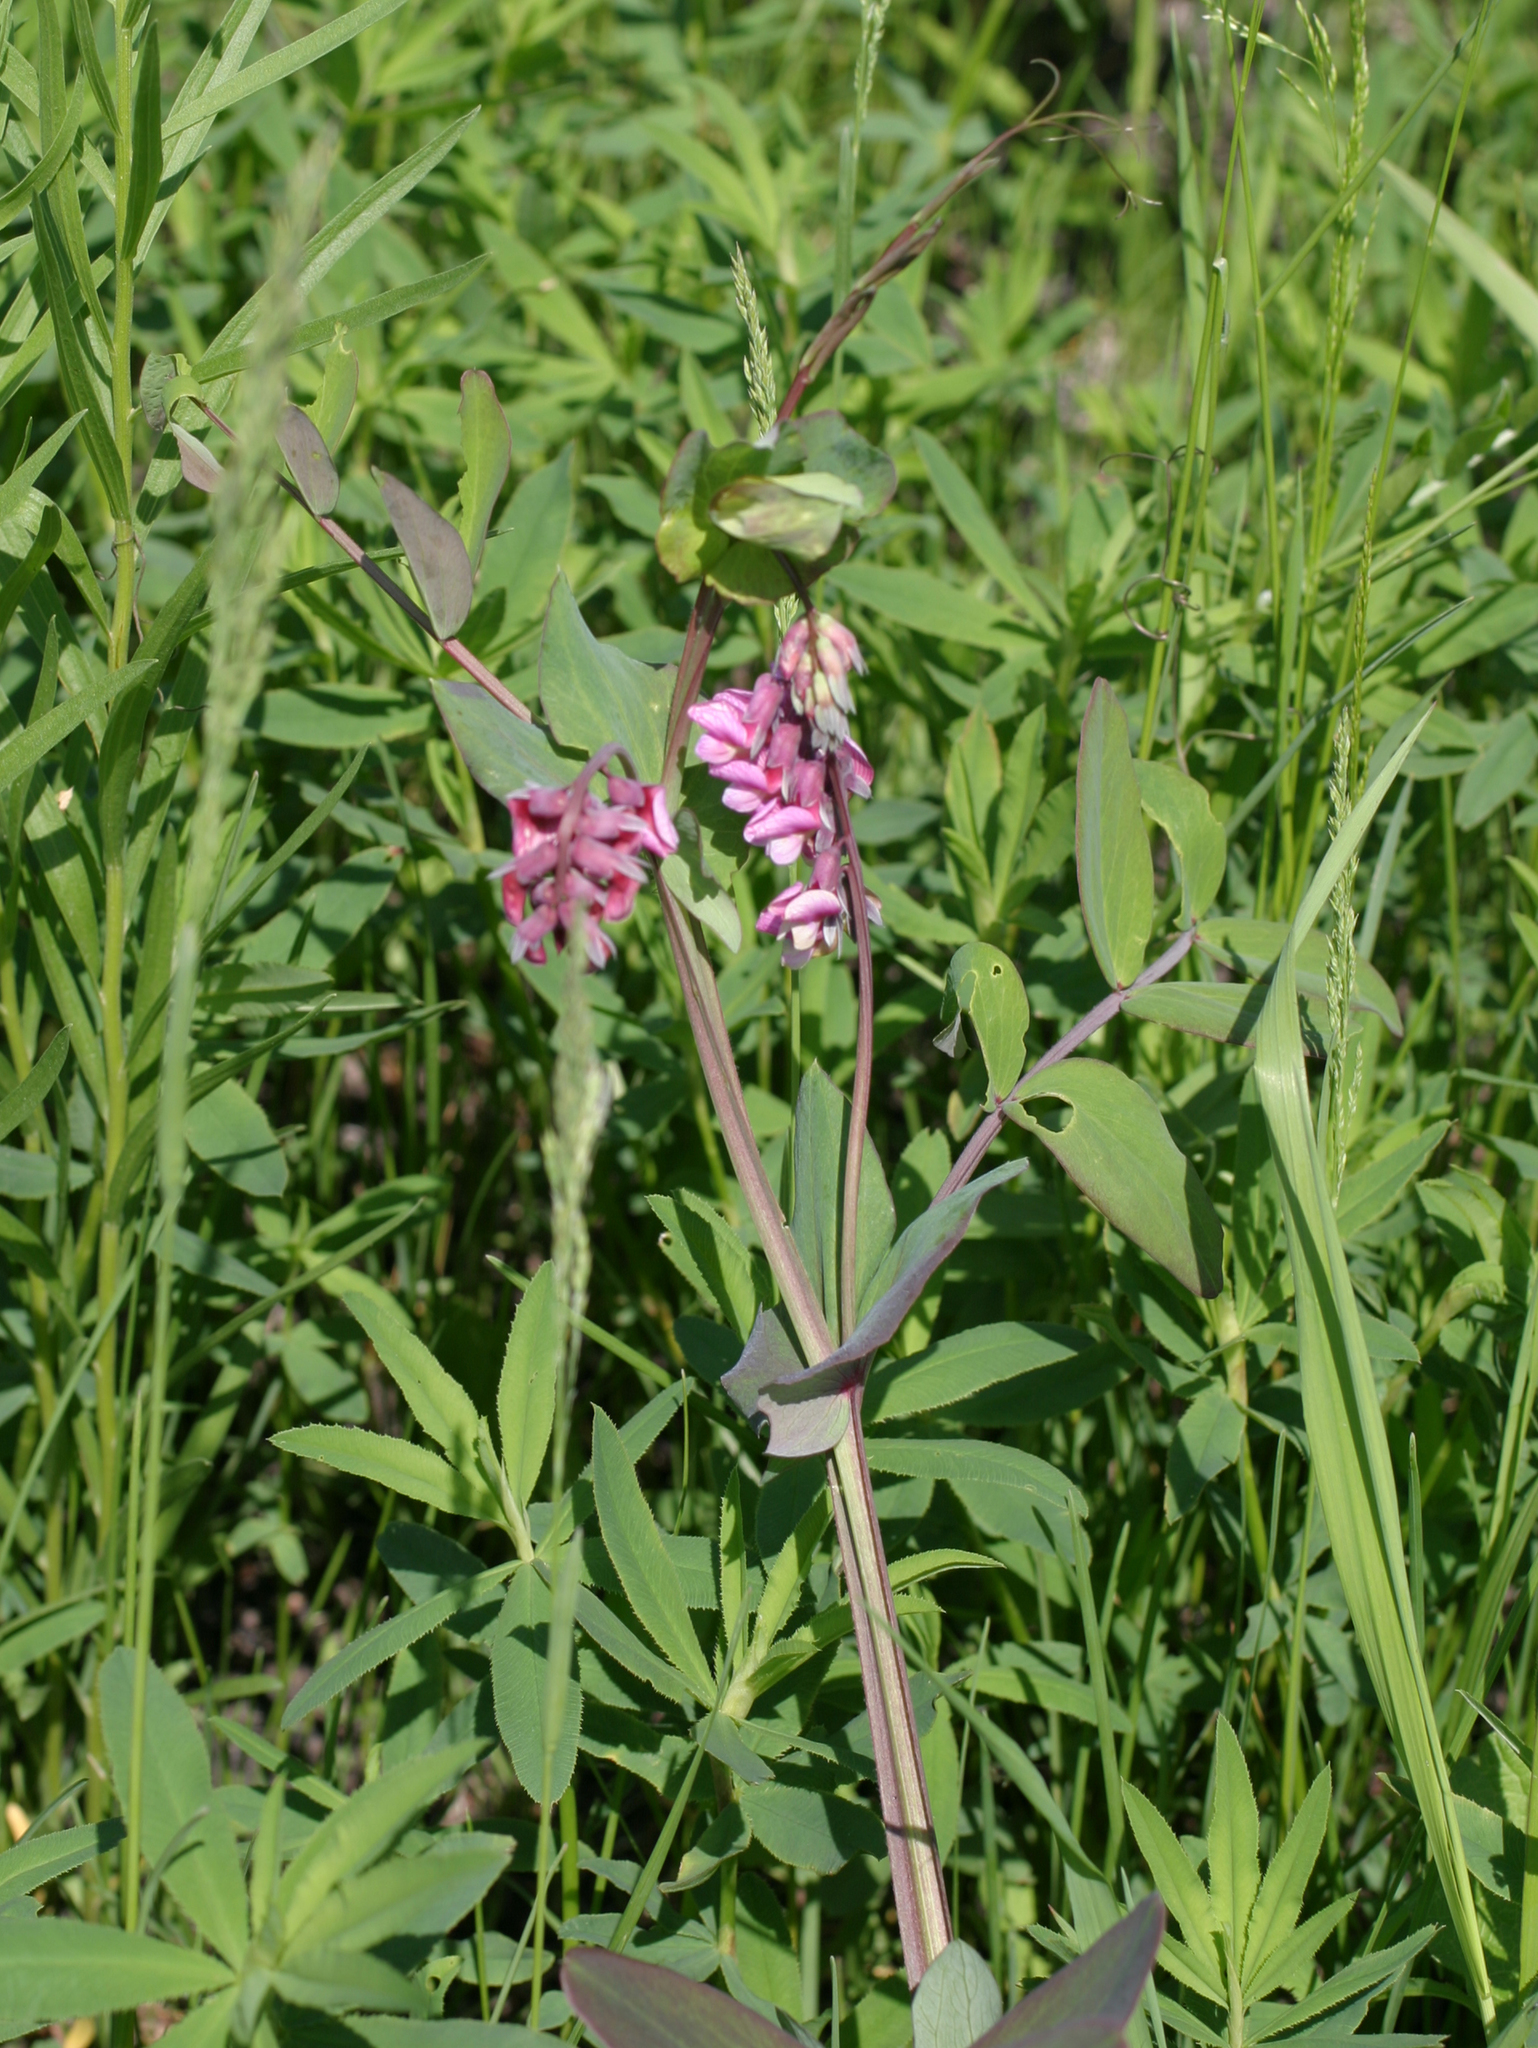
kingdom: Plantae
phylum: Tracheophyta
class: Magnoliopsida
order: Fabales
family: Fabaceae
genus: Lathyrus
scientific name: Lathyrus pisiformis
